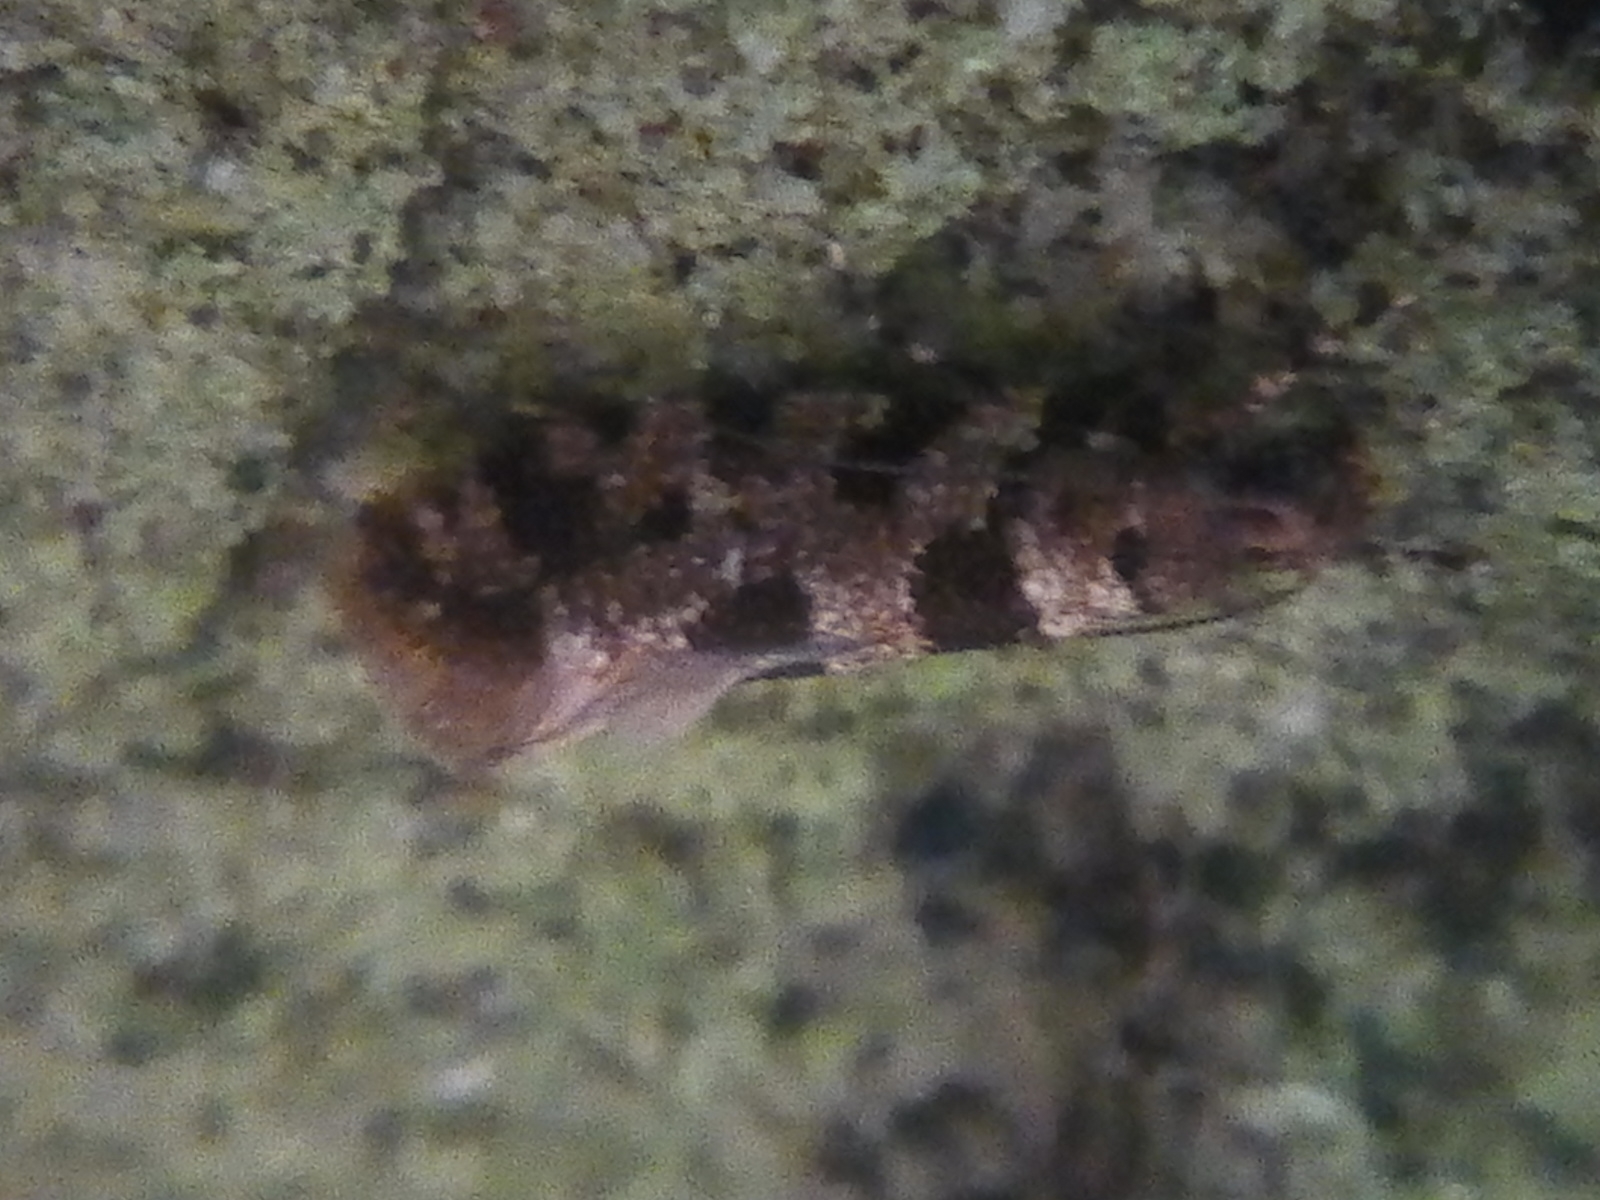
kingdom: Animalia
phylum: Arthropoda
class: Insecta
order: Lepidoptera
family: Tineidae
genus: Parochmastis
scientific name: Parochmastis hilderi
